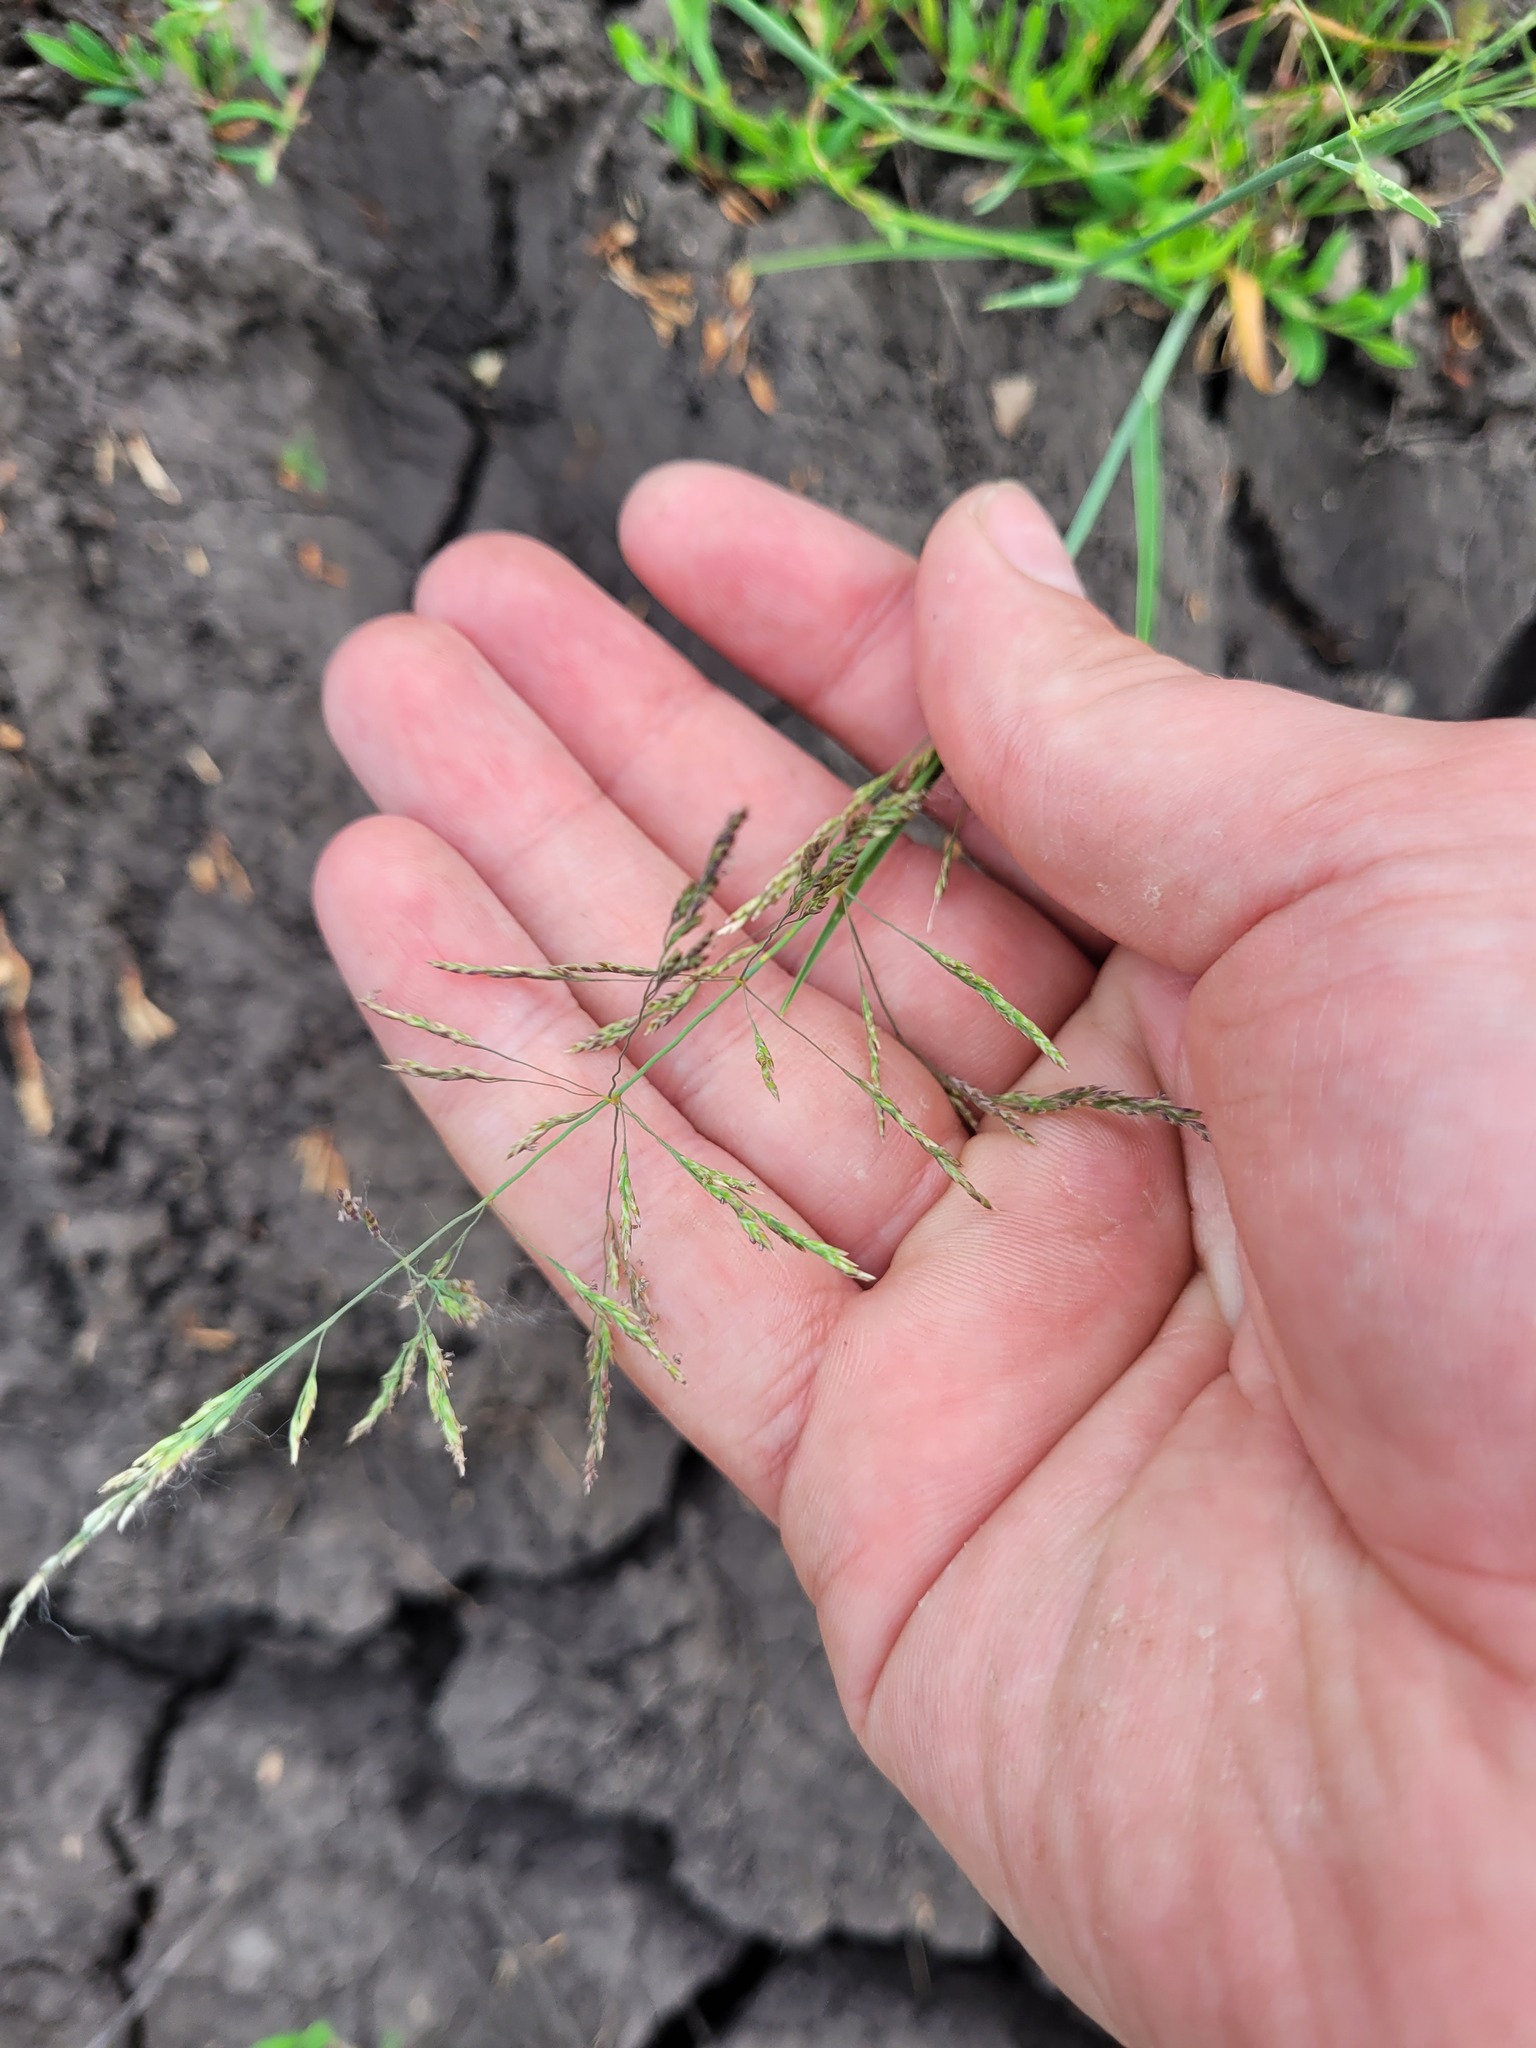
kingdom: Plantae
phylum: Tracheophyta
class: Liliopsida
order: Poales
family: Poaceae
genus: Puccinellia
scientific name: Puccinellia distans
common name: Weeping alkaligrass
